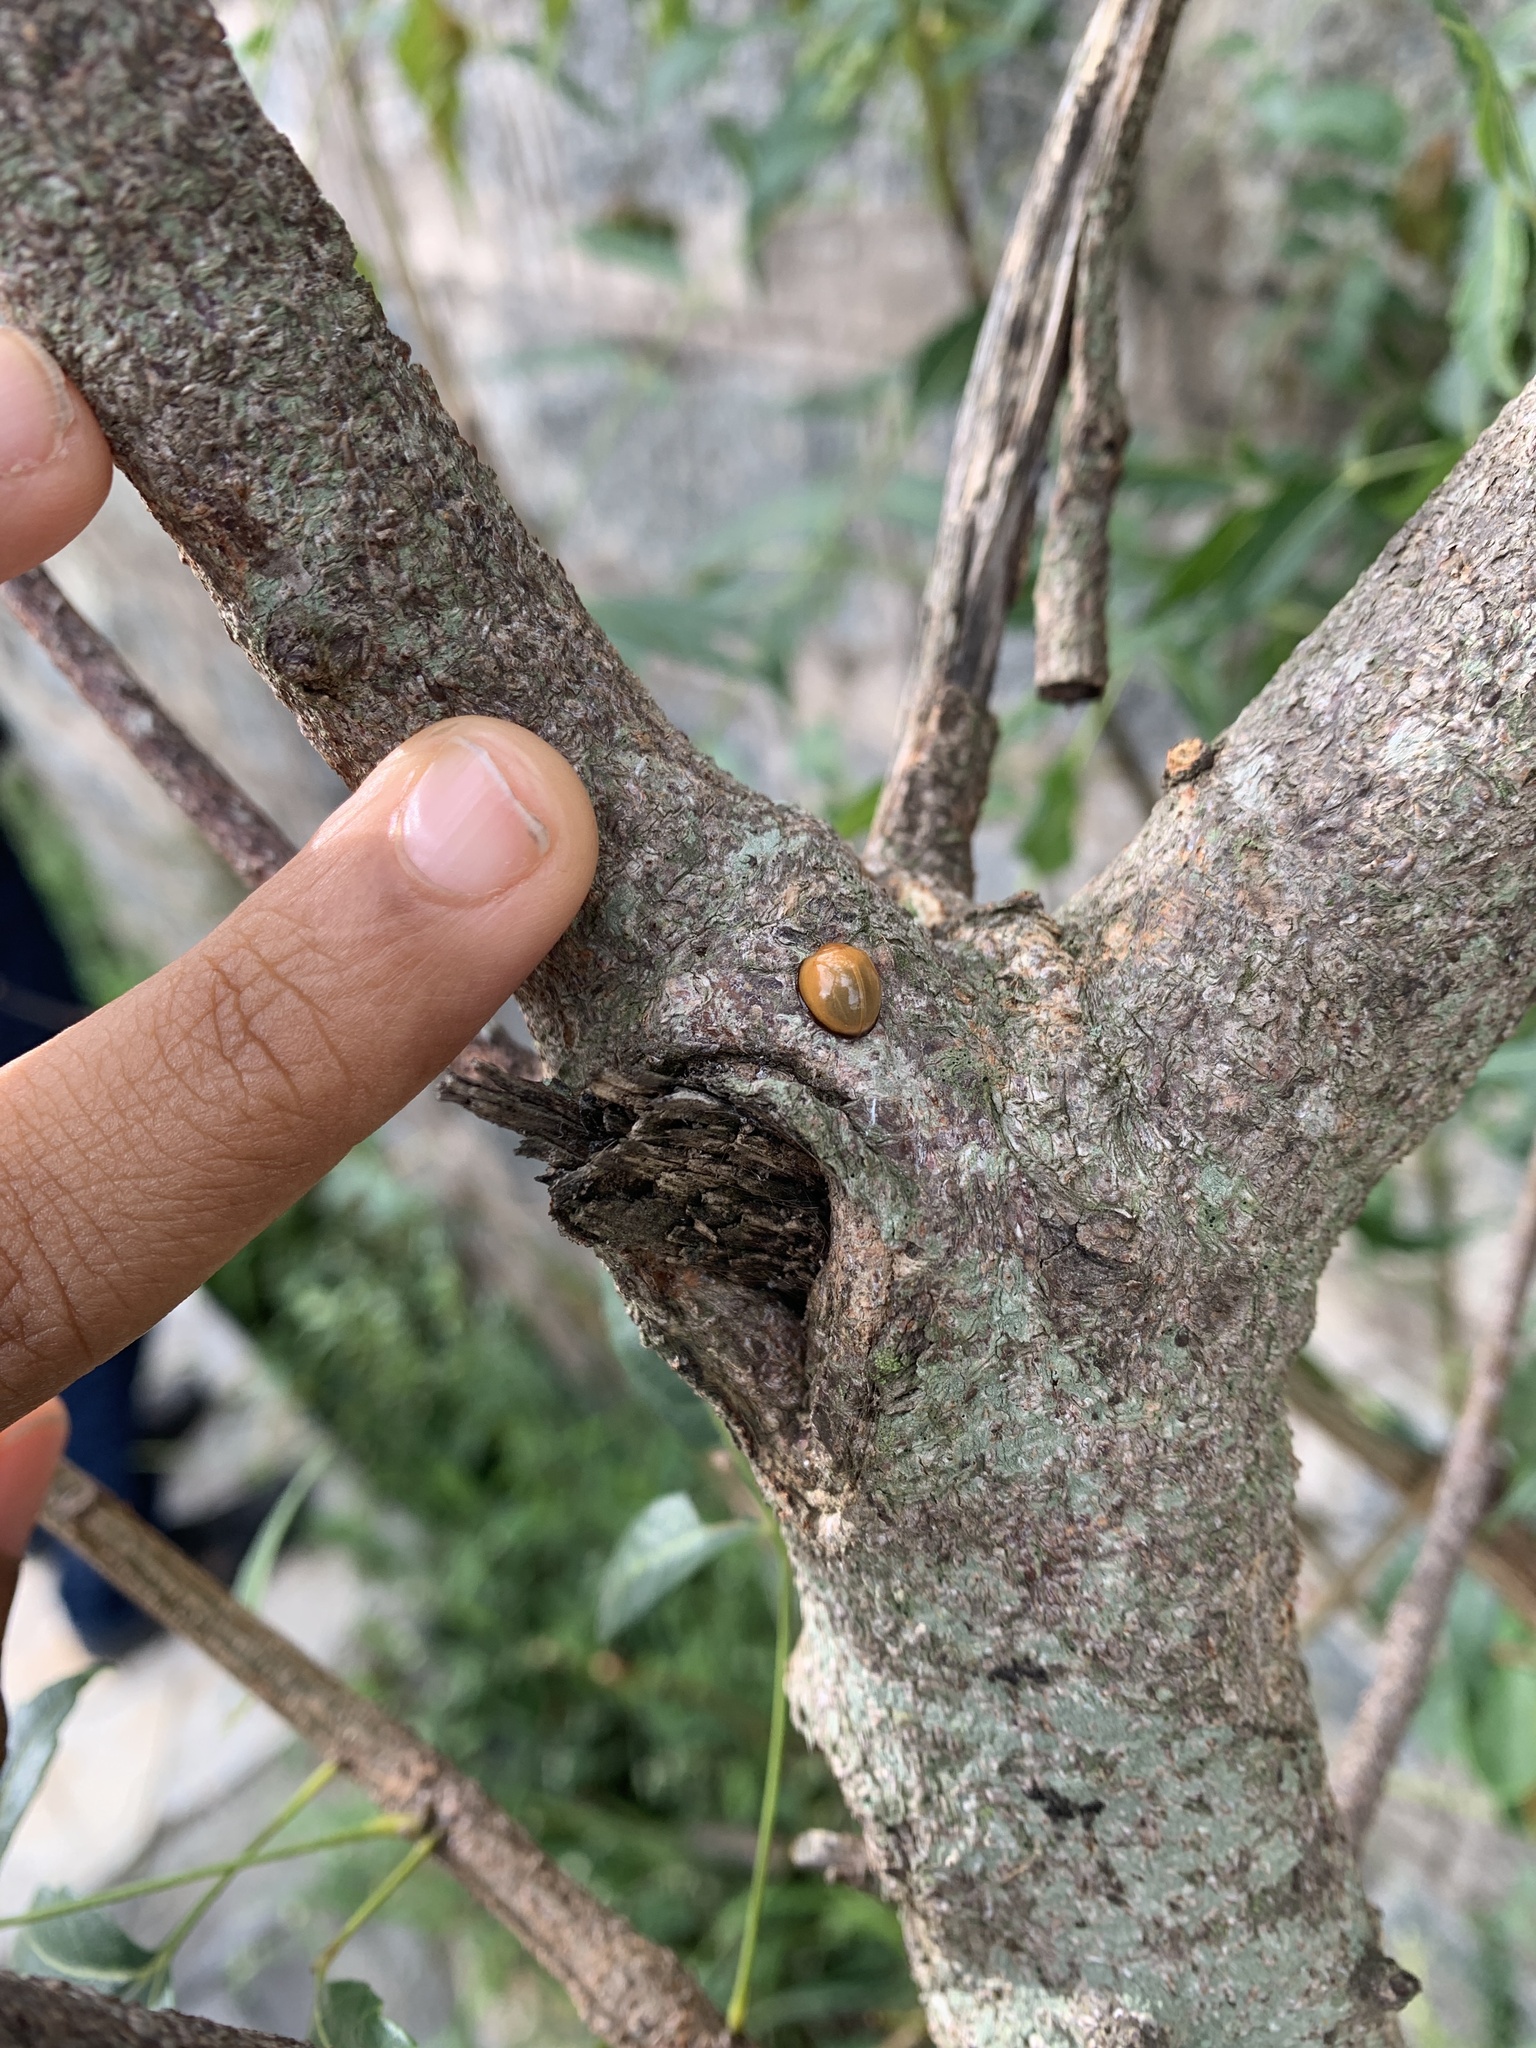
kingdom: Animalia
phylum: Arthropoda
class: Insecta
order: Coleoptera
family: Coccinellidae
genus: Chilocorus
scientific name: Chilocorus circumdatus
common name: Lady beetle
